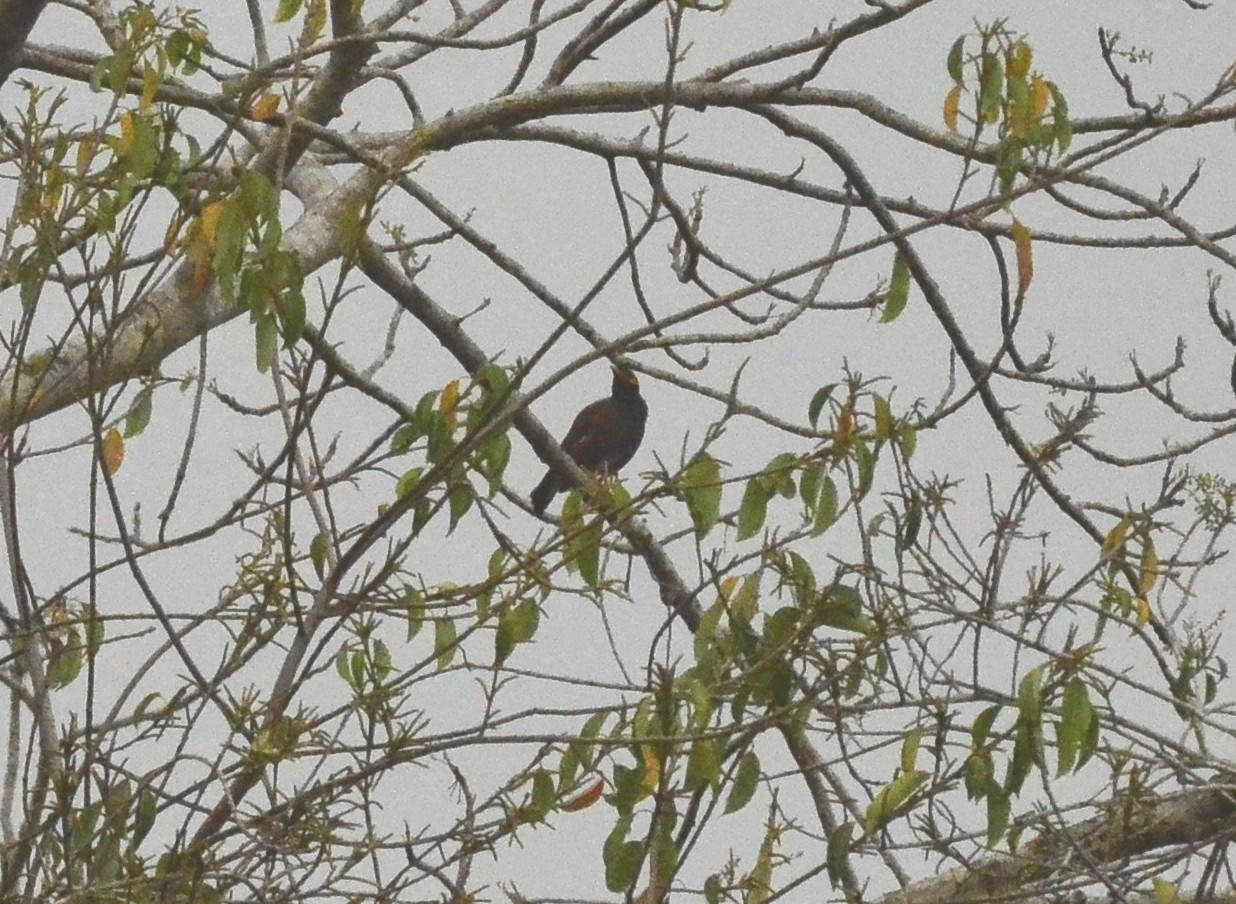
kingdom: Animalia
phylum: Chordata
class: Aves
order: Passeriformes
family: Sturnidae
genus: Acridotheres
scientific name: Acridotheres tristis
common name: Common myna
